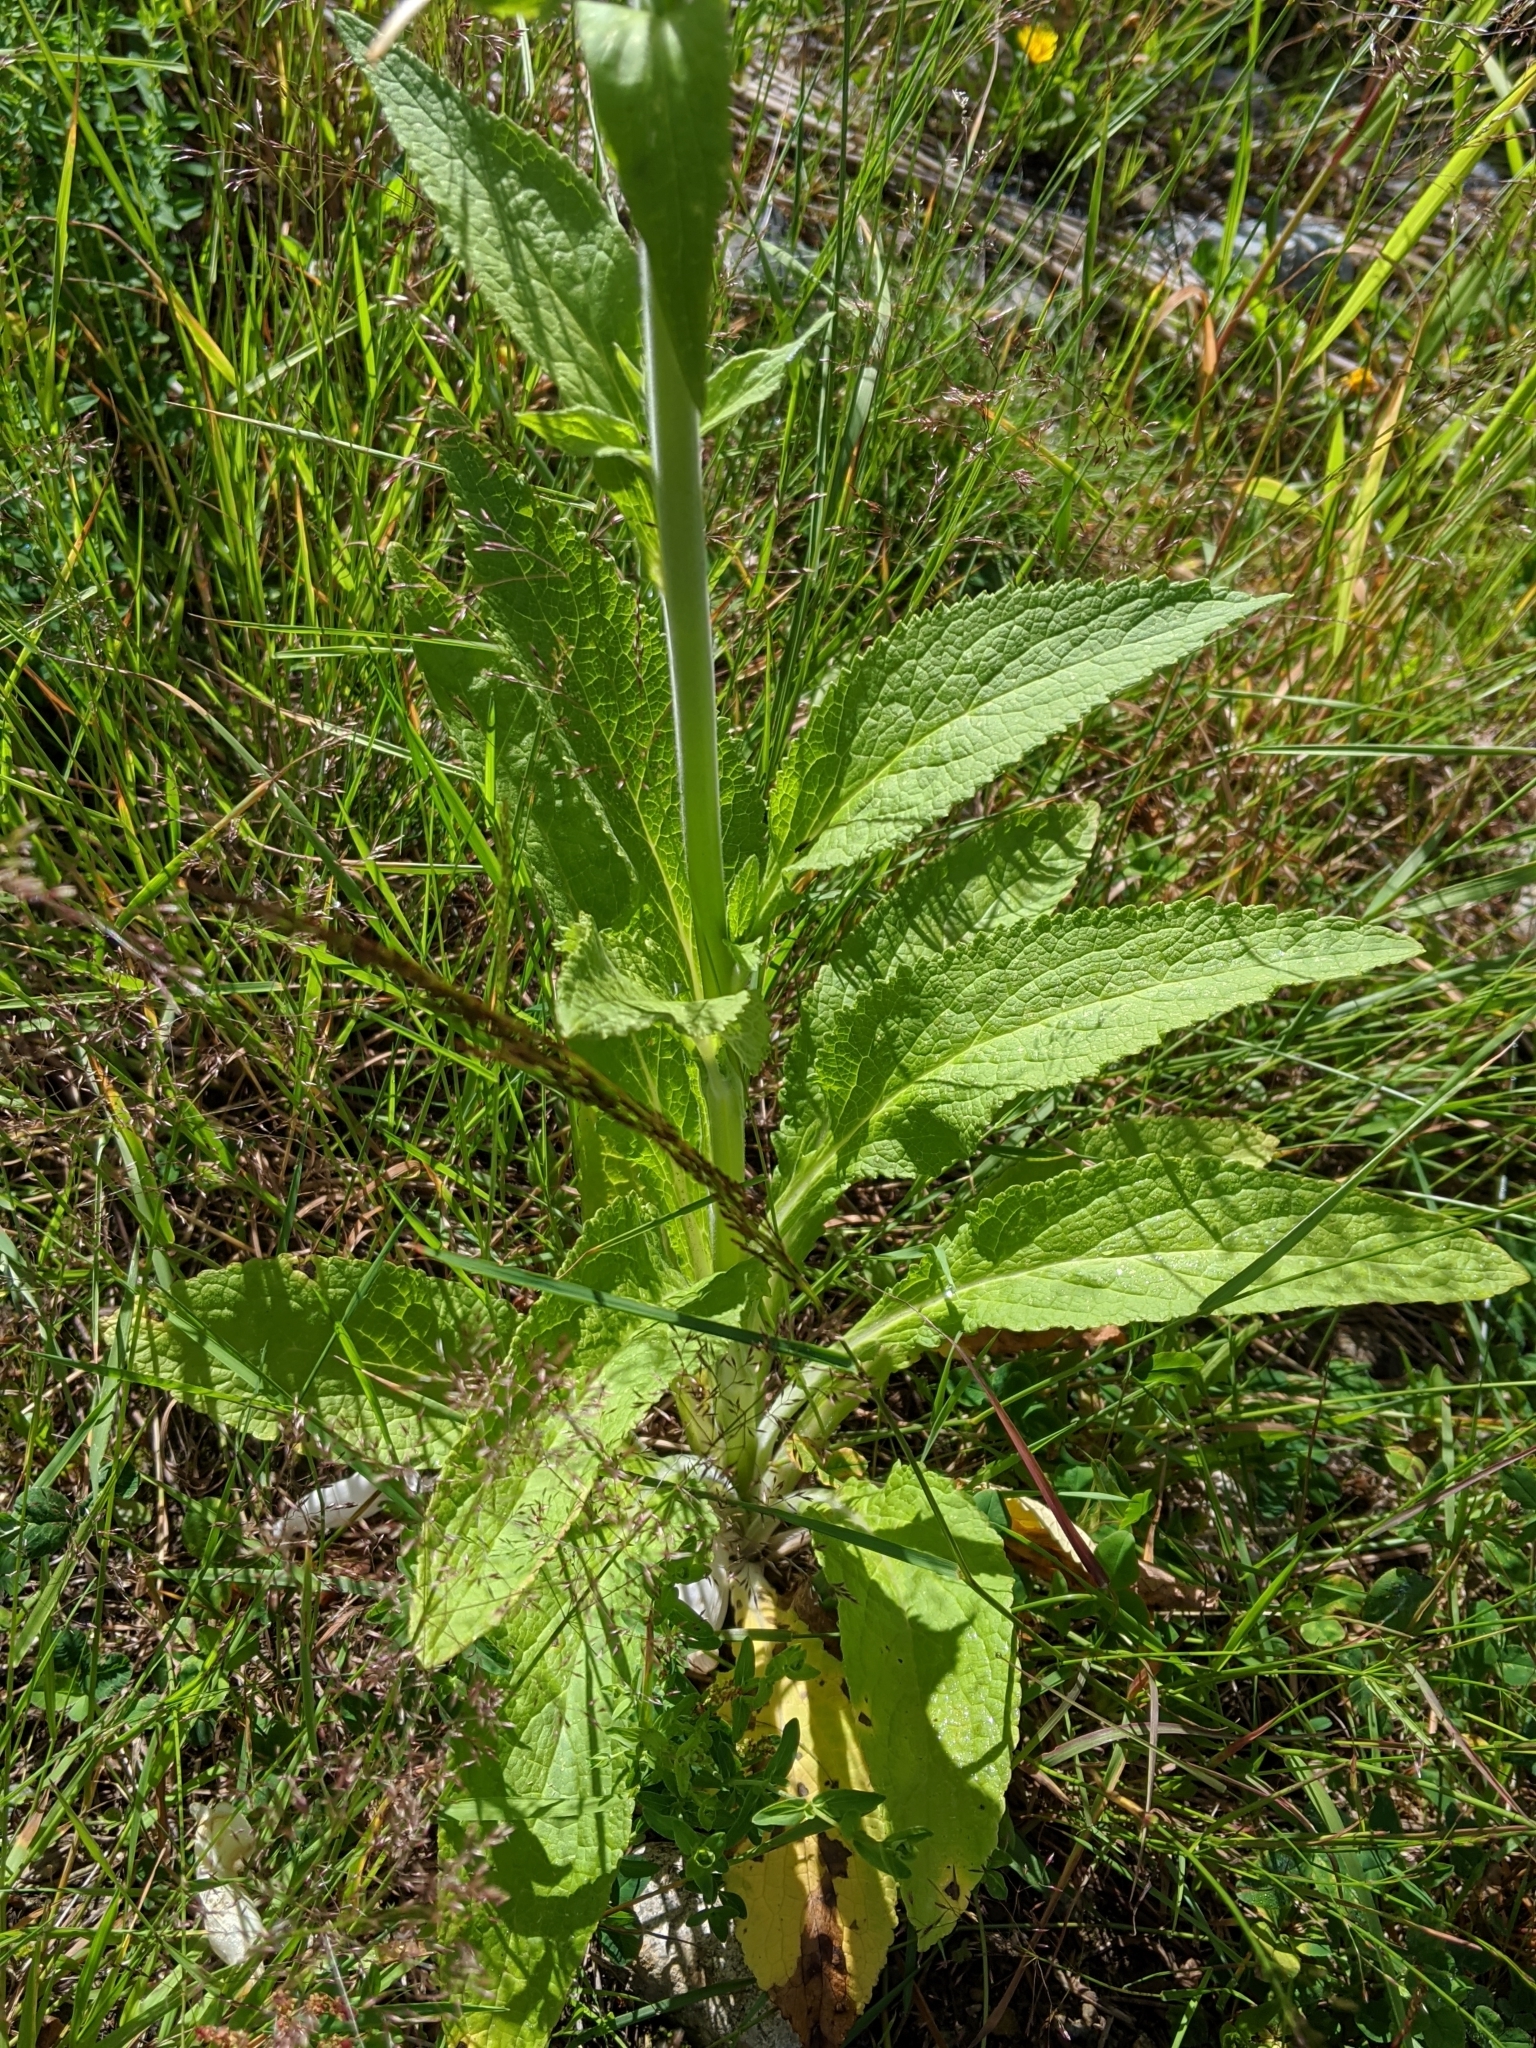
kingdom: Plantae
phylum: Tracheophyta
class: Magnoliopsida
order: Lamiales
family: Plantaginaceae
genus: Digitalis
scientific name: Digitalis purpurea
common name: Foxglove
